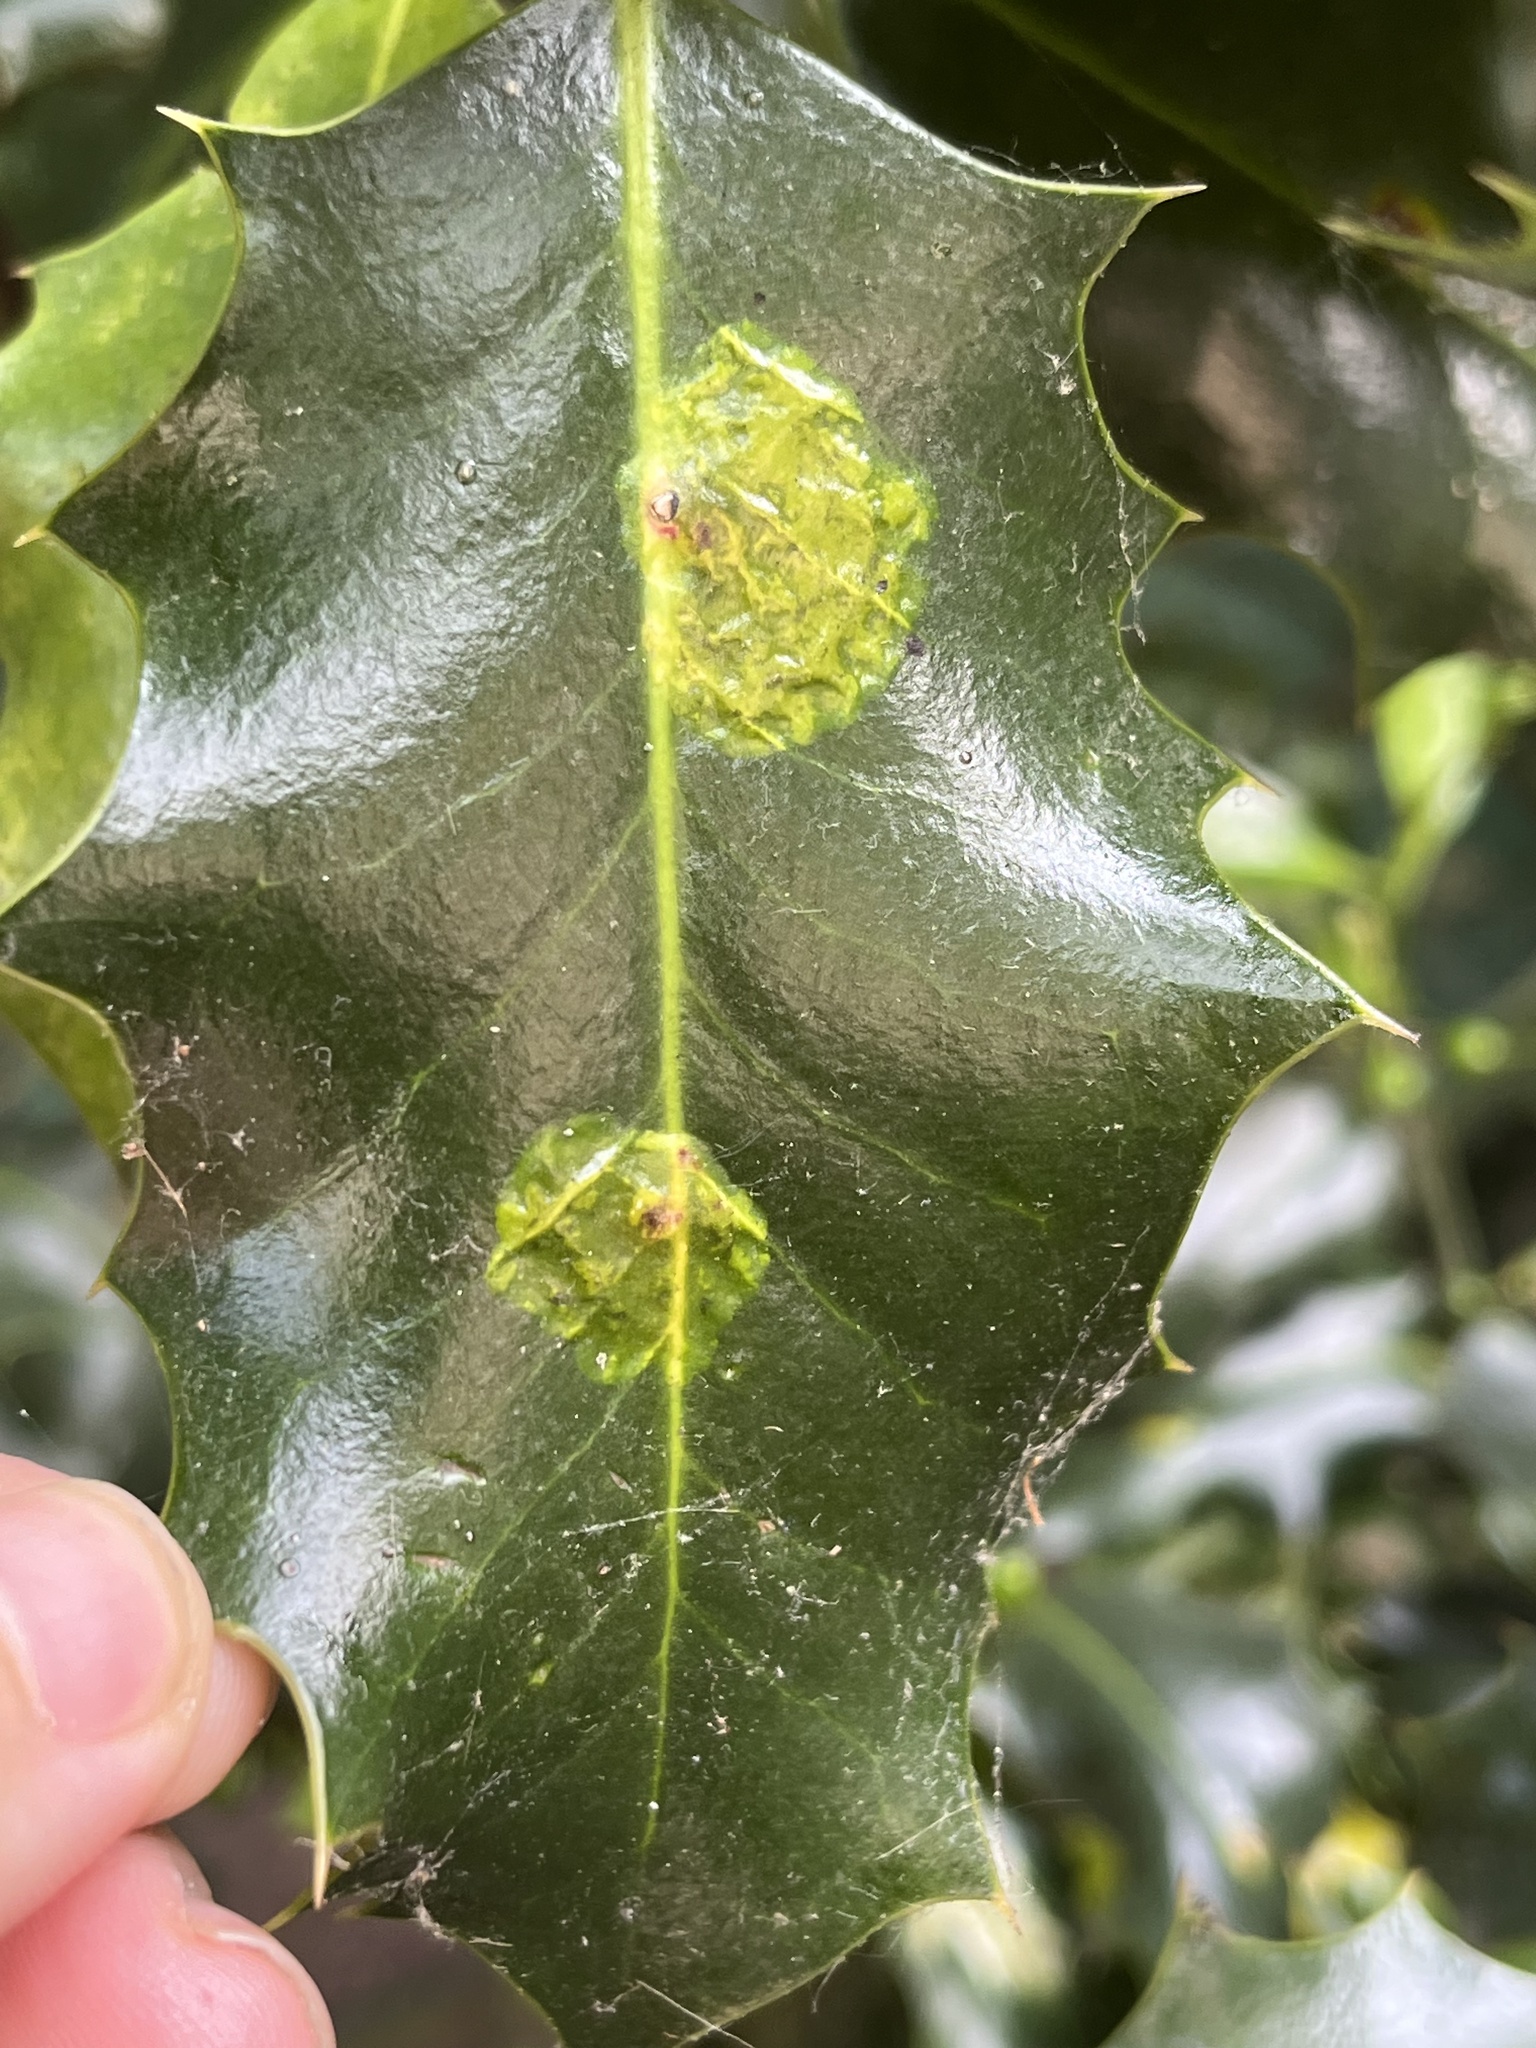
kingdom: Animalia
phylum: Arthropoda
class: Insecta
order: Diptera
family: Agromyzidae
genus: Phytomyza
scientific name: Phytomyza ilicis
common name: Holly leafminer
